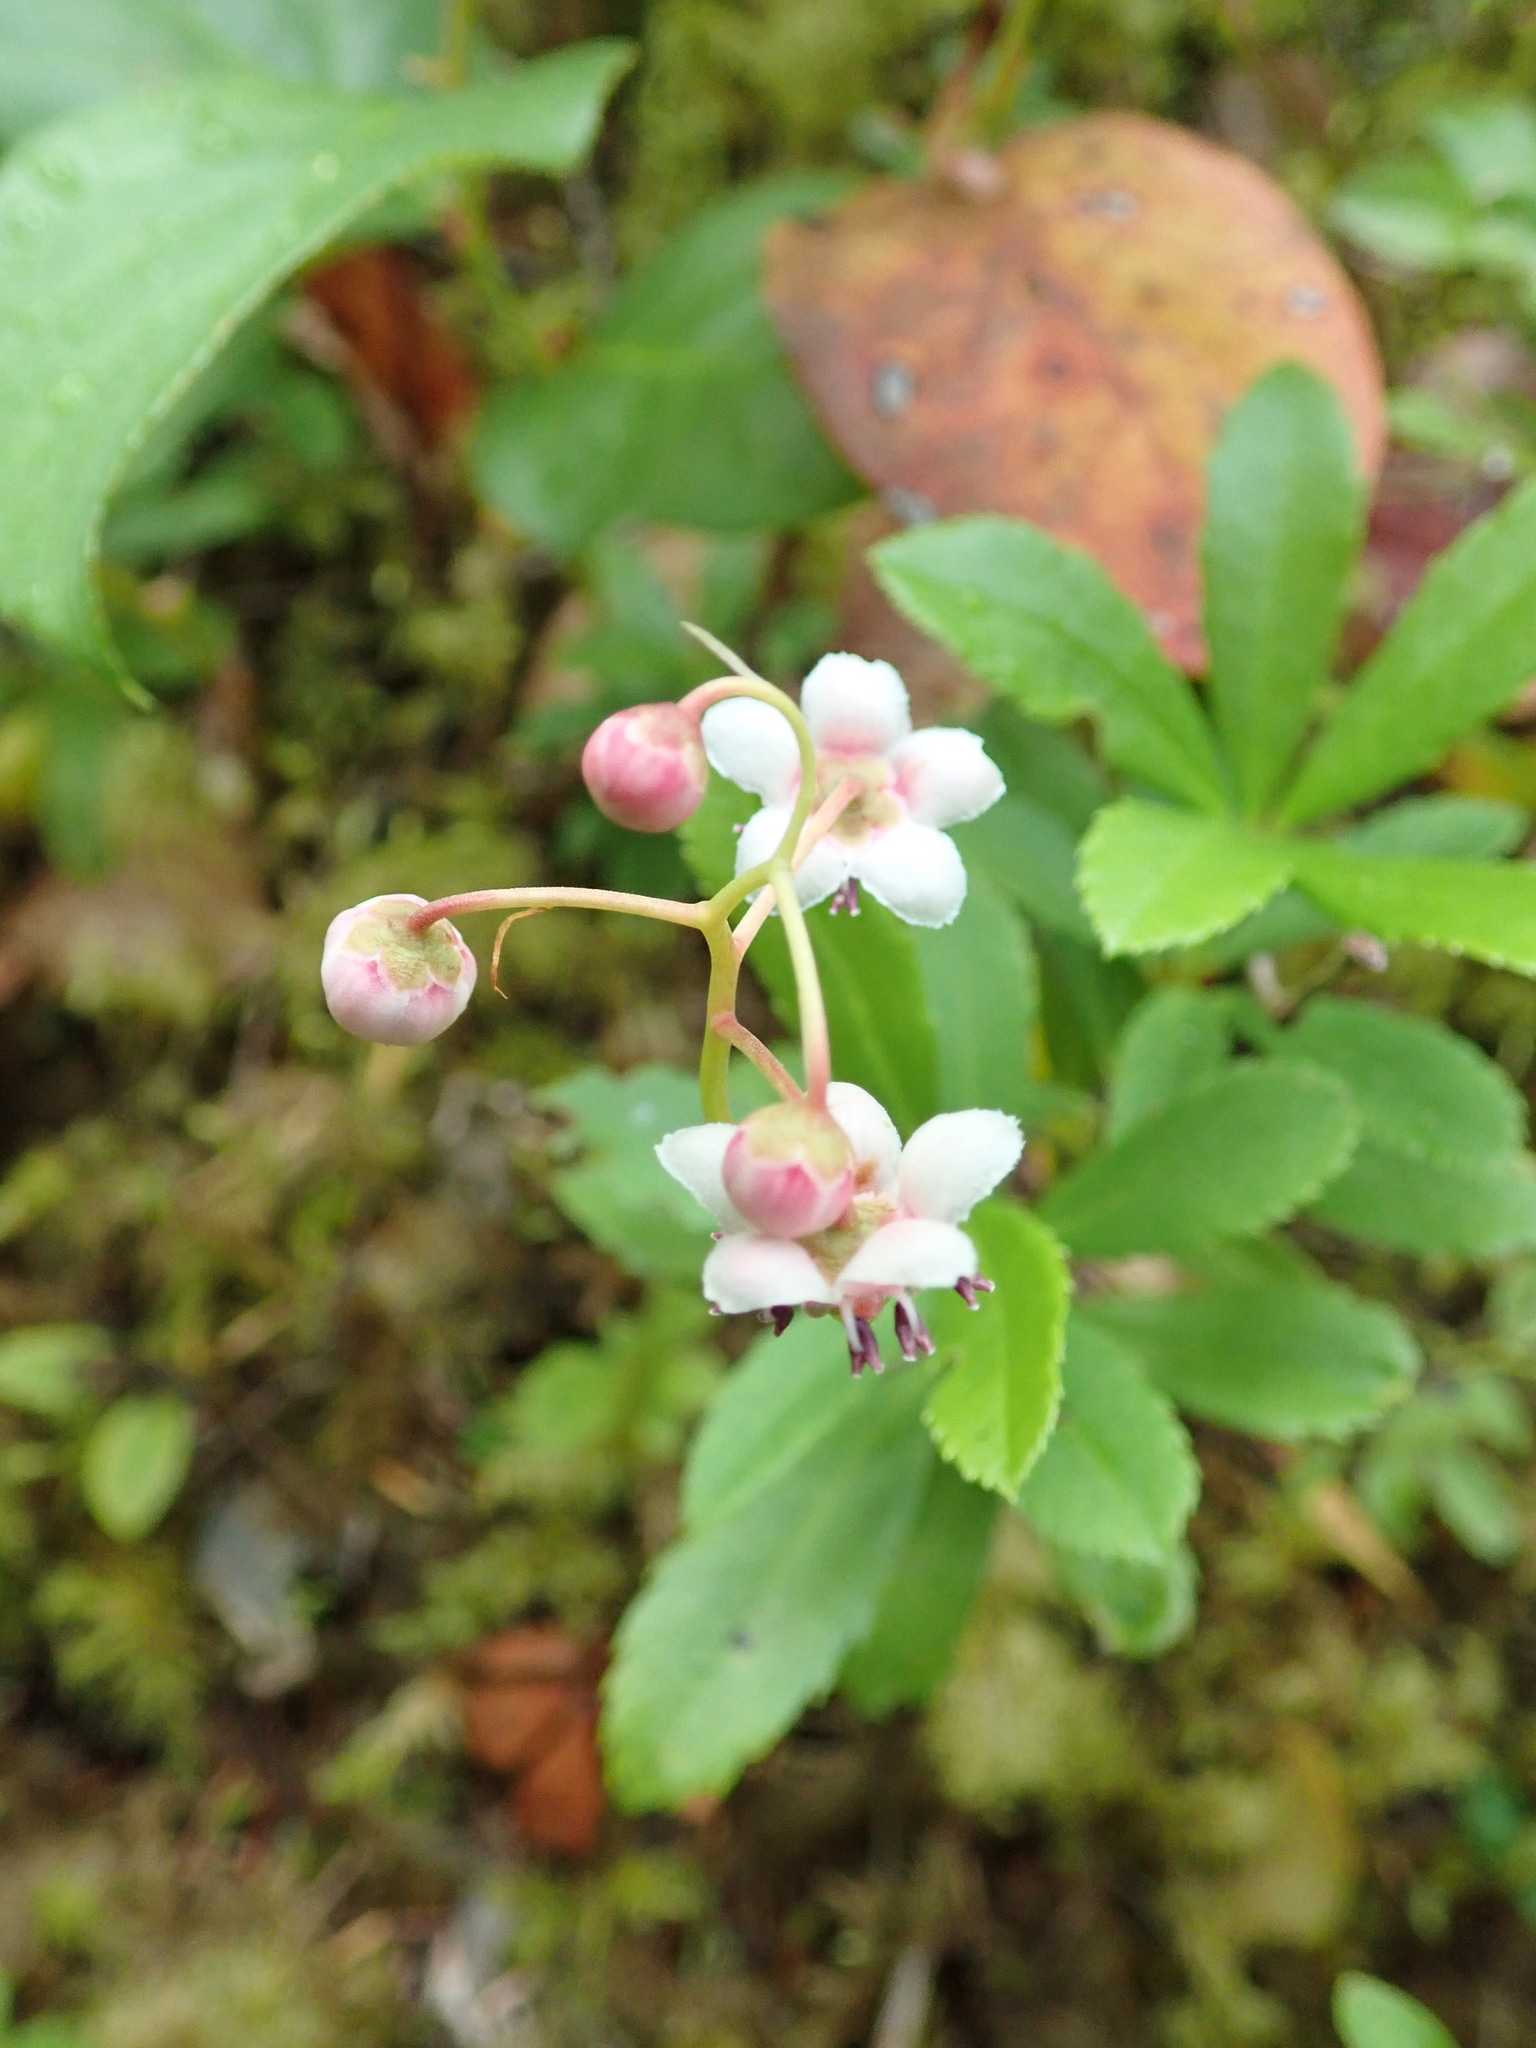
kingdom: Plantae
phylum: Tracheophyta
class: Magnoliopsida
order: Ericales
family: Ericaceae
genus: Chimaphila
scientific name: Chimaphila umbellata
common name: Pipsissewa
